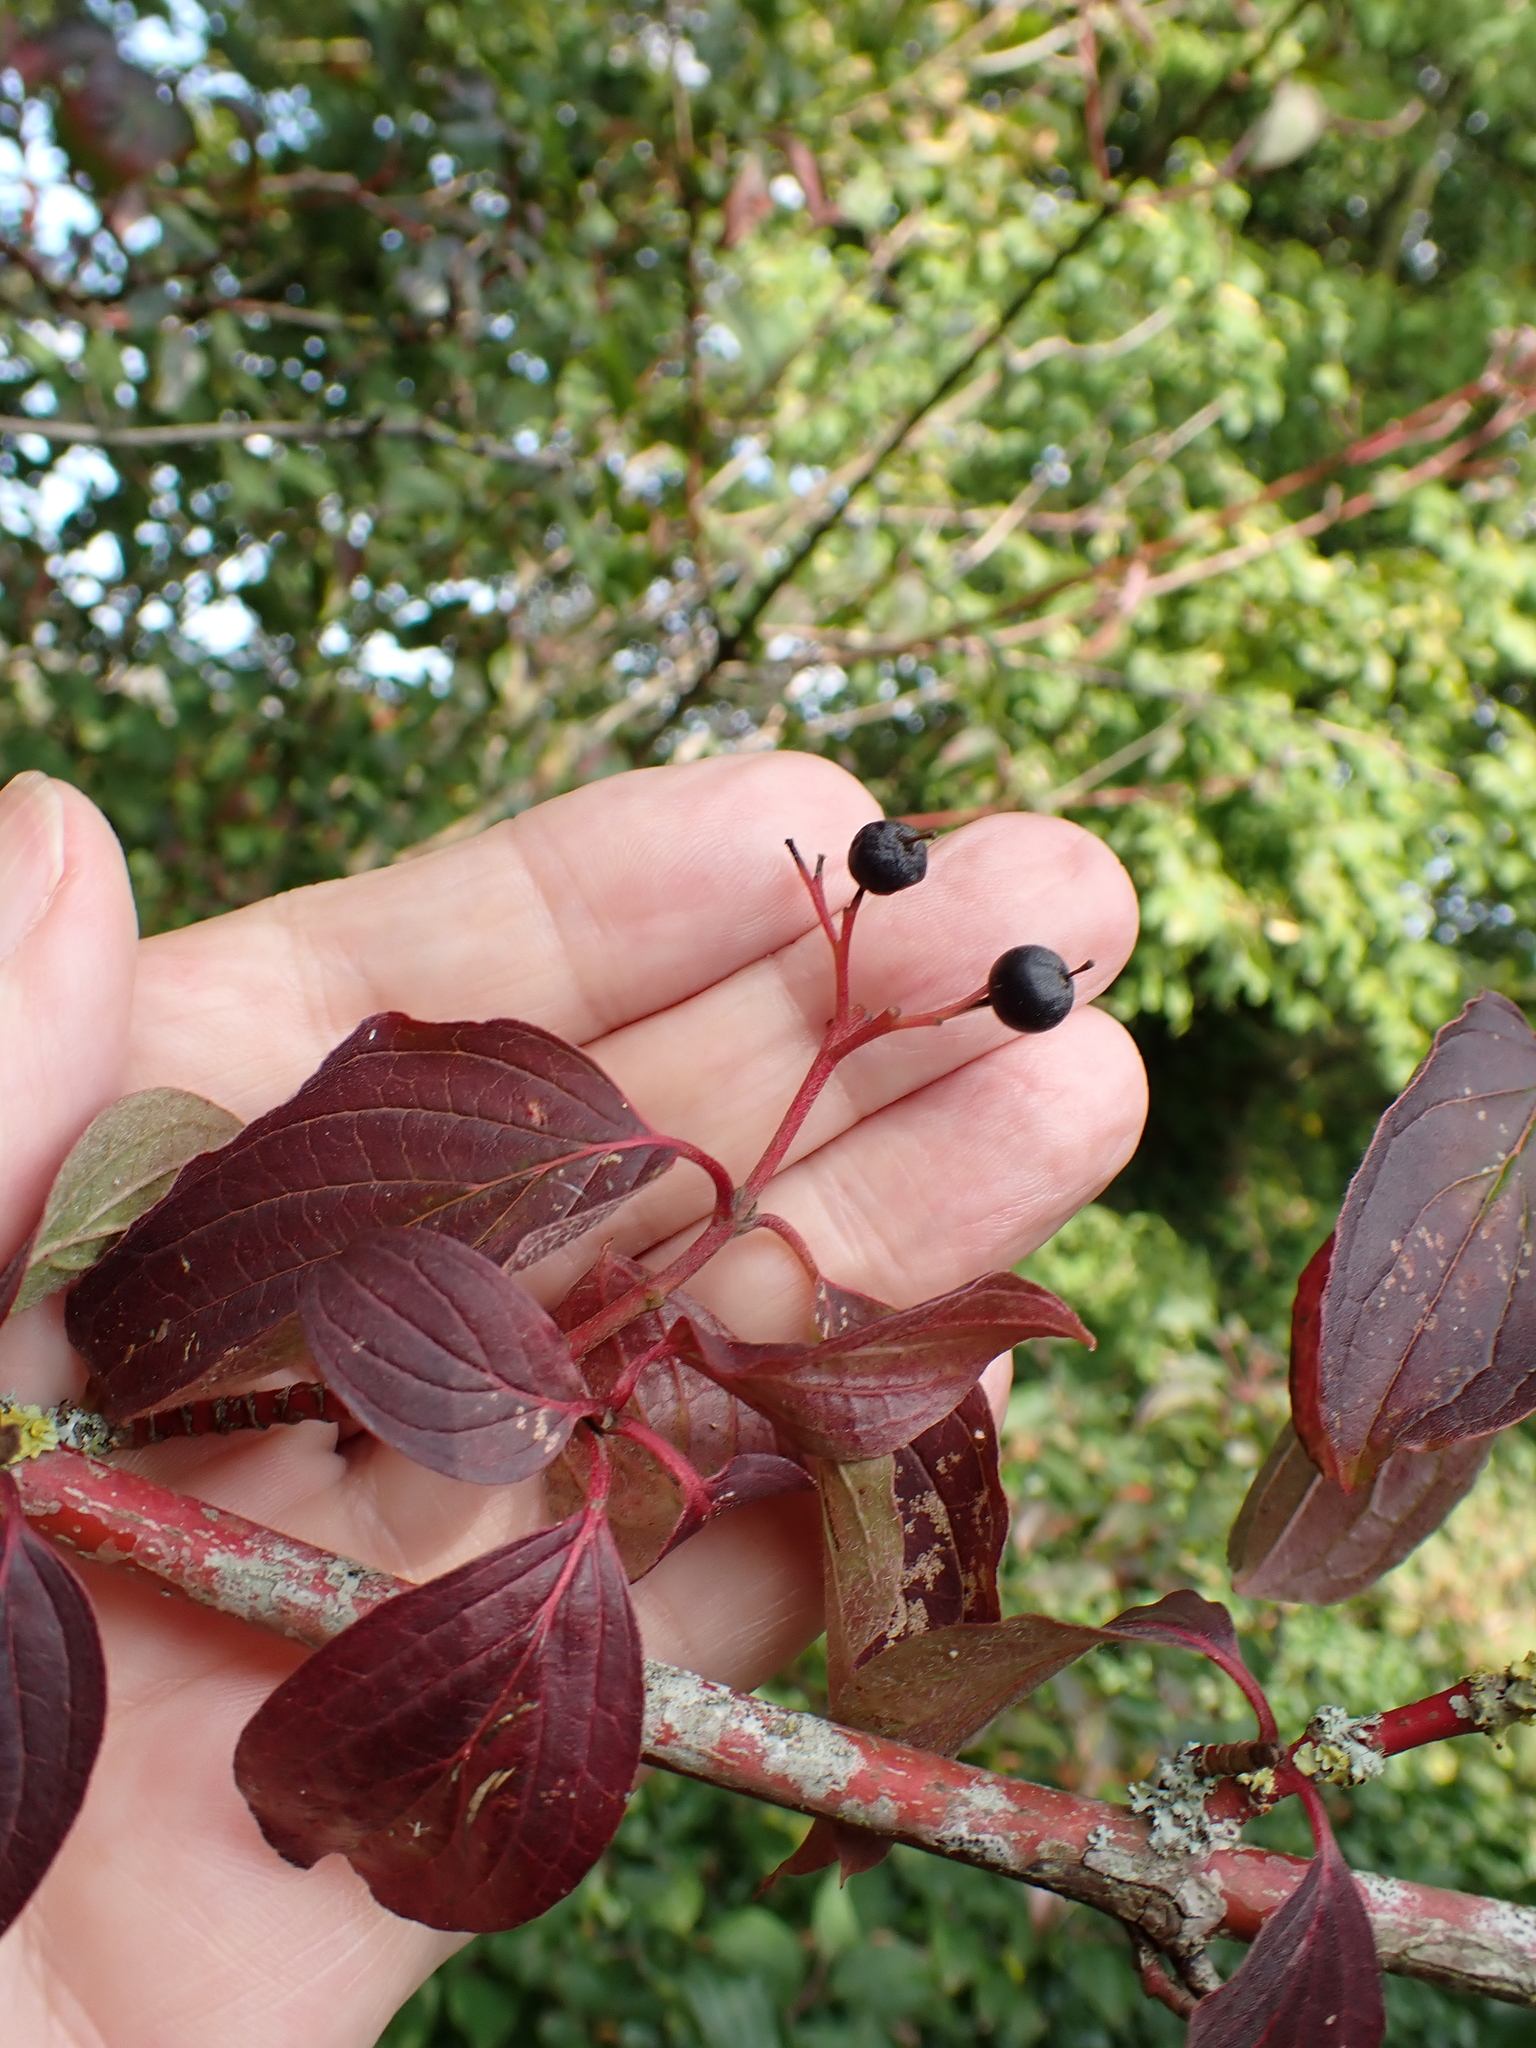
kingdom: Plantae
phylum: Tracheophyta
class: Magnoliopsida
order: Cornales
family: Cornaceae
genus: Cornus
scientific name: Cornus sanguinea
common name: Dogwood
